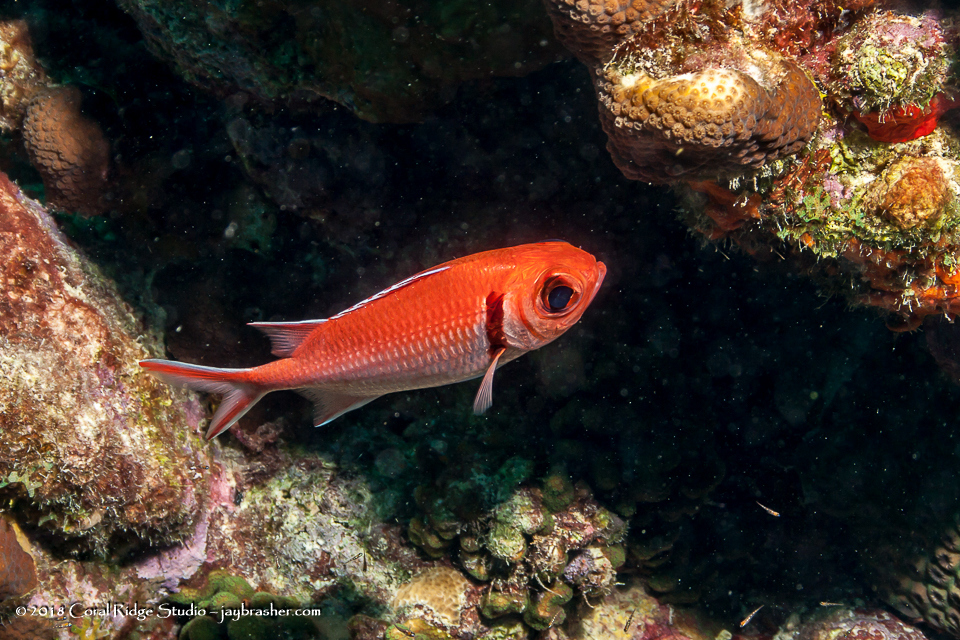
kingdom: Animalia
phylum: Chordata
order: Beryciformes
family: Holocentridae
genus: Myripristis
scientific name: Myripristis jacobus
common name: Blackbar soldierfish
